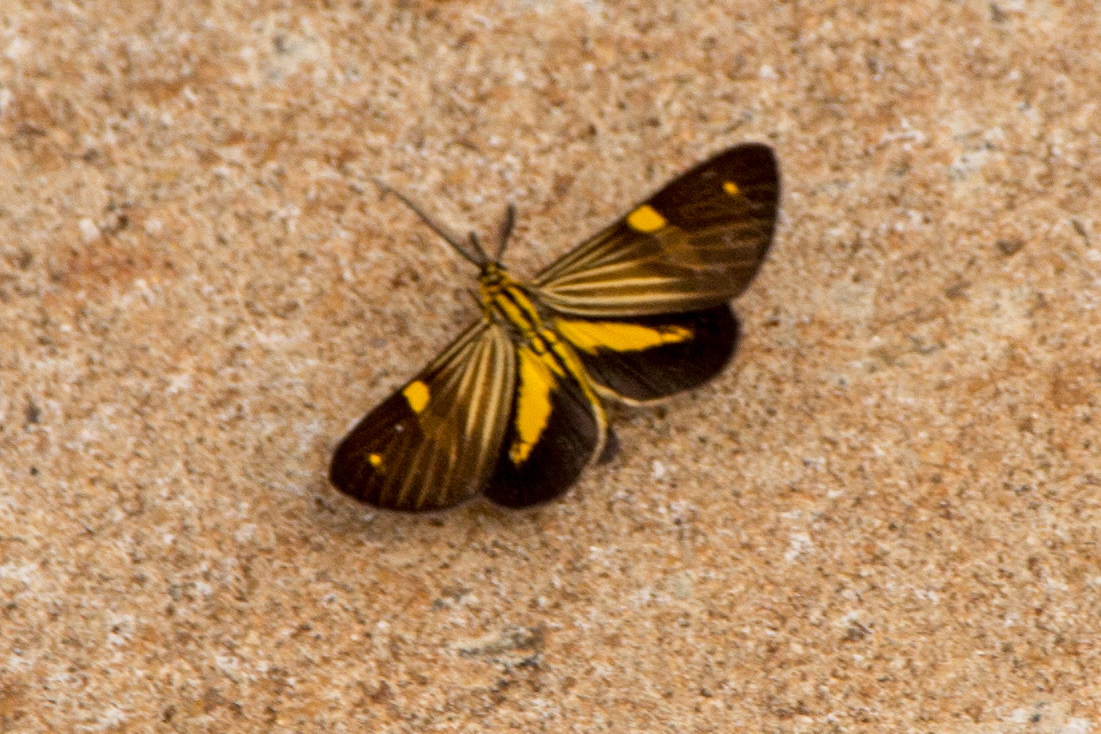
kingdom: Animalia
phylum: Arthropoda
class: Insecta
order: Lepidoptera
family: Notodontidae
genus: Phaeochlaena
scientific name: Phaeochlaena
